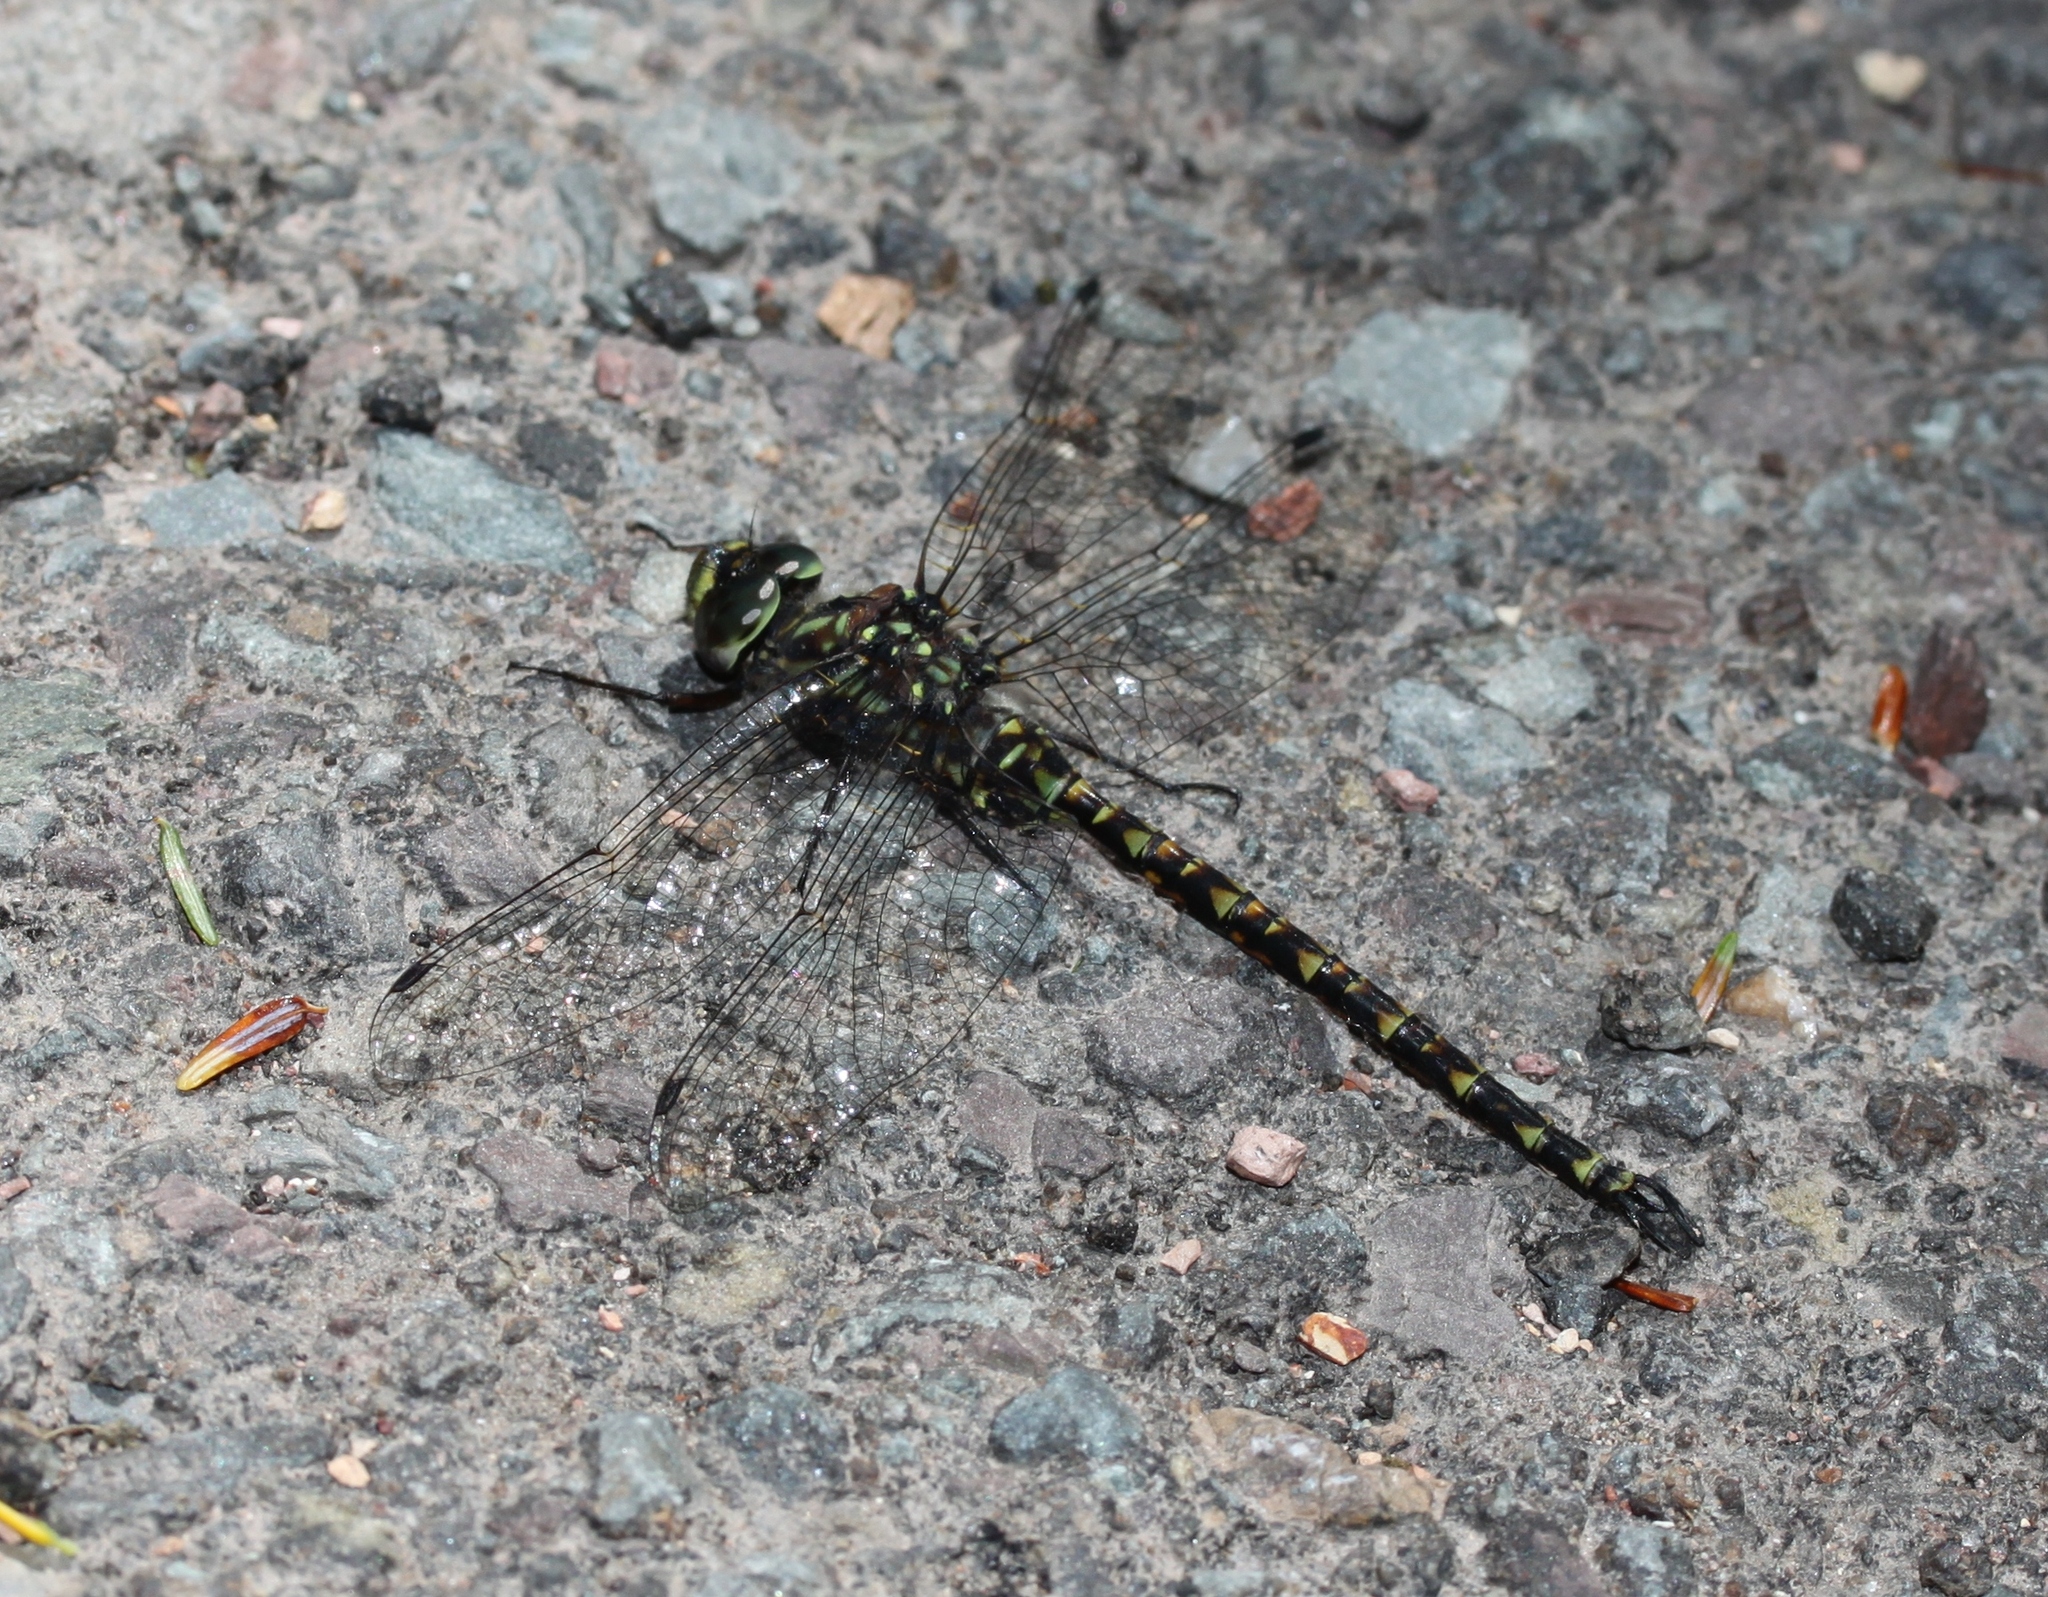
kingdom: Animalia
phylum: Arthropoda
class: Insecta
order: Odonata
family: Aeshnidae
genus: Gomphaeschna
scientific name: Gomphaeschna furcillata
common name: Harlequin darner
